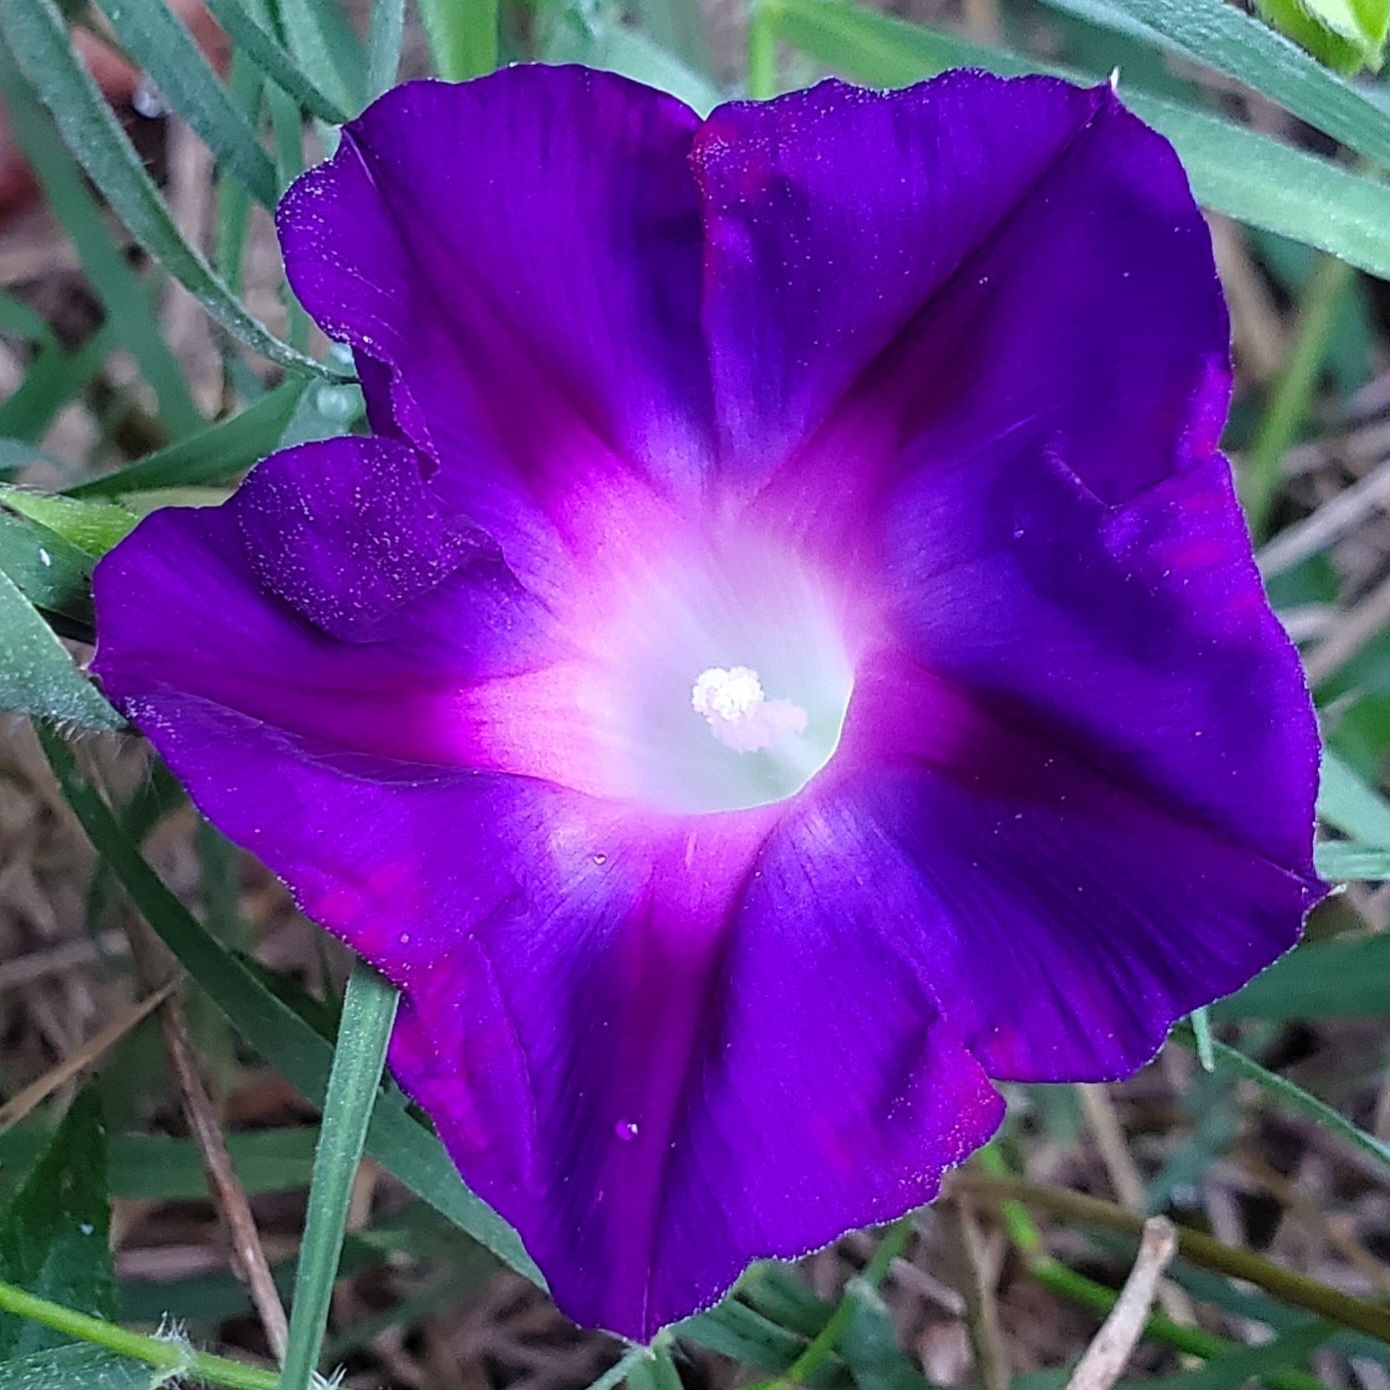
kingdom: Plantae
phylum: Tracheophyta
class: Magnoliopsida
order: Solanales
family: Convolvulaceae
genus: Ipomoea
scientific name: Ipomoea purpurea
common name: Common morning-glory
